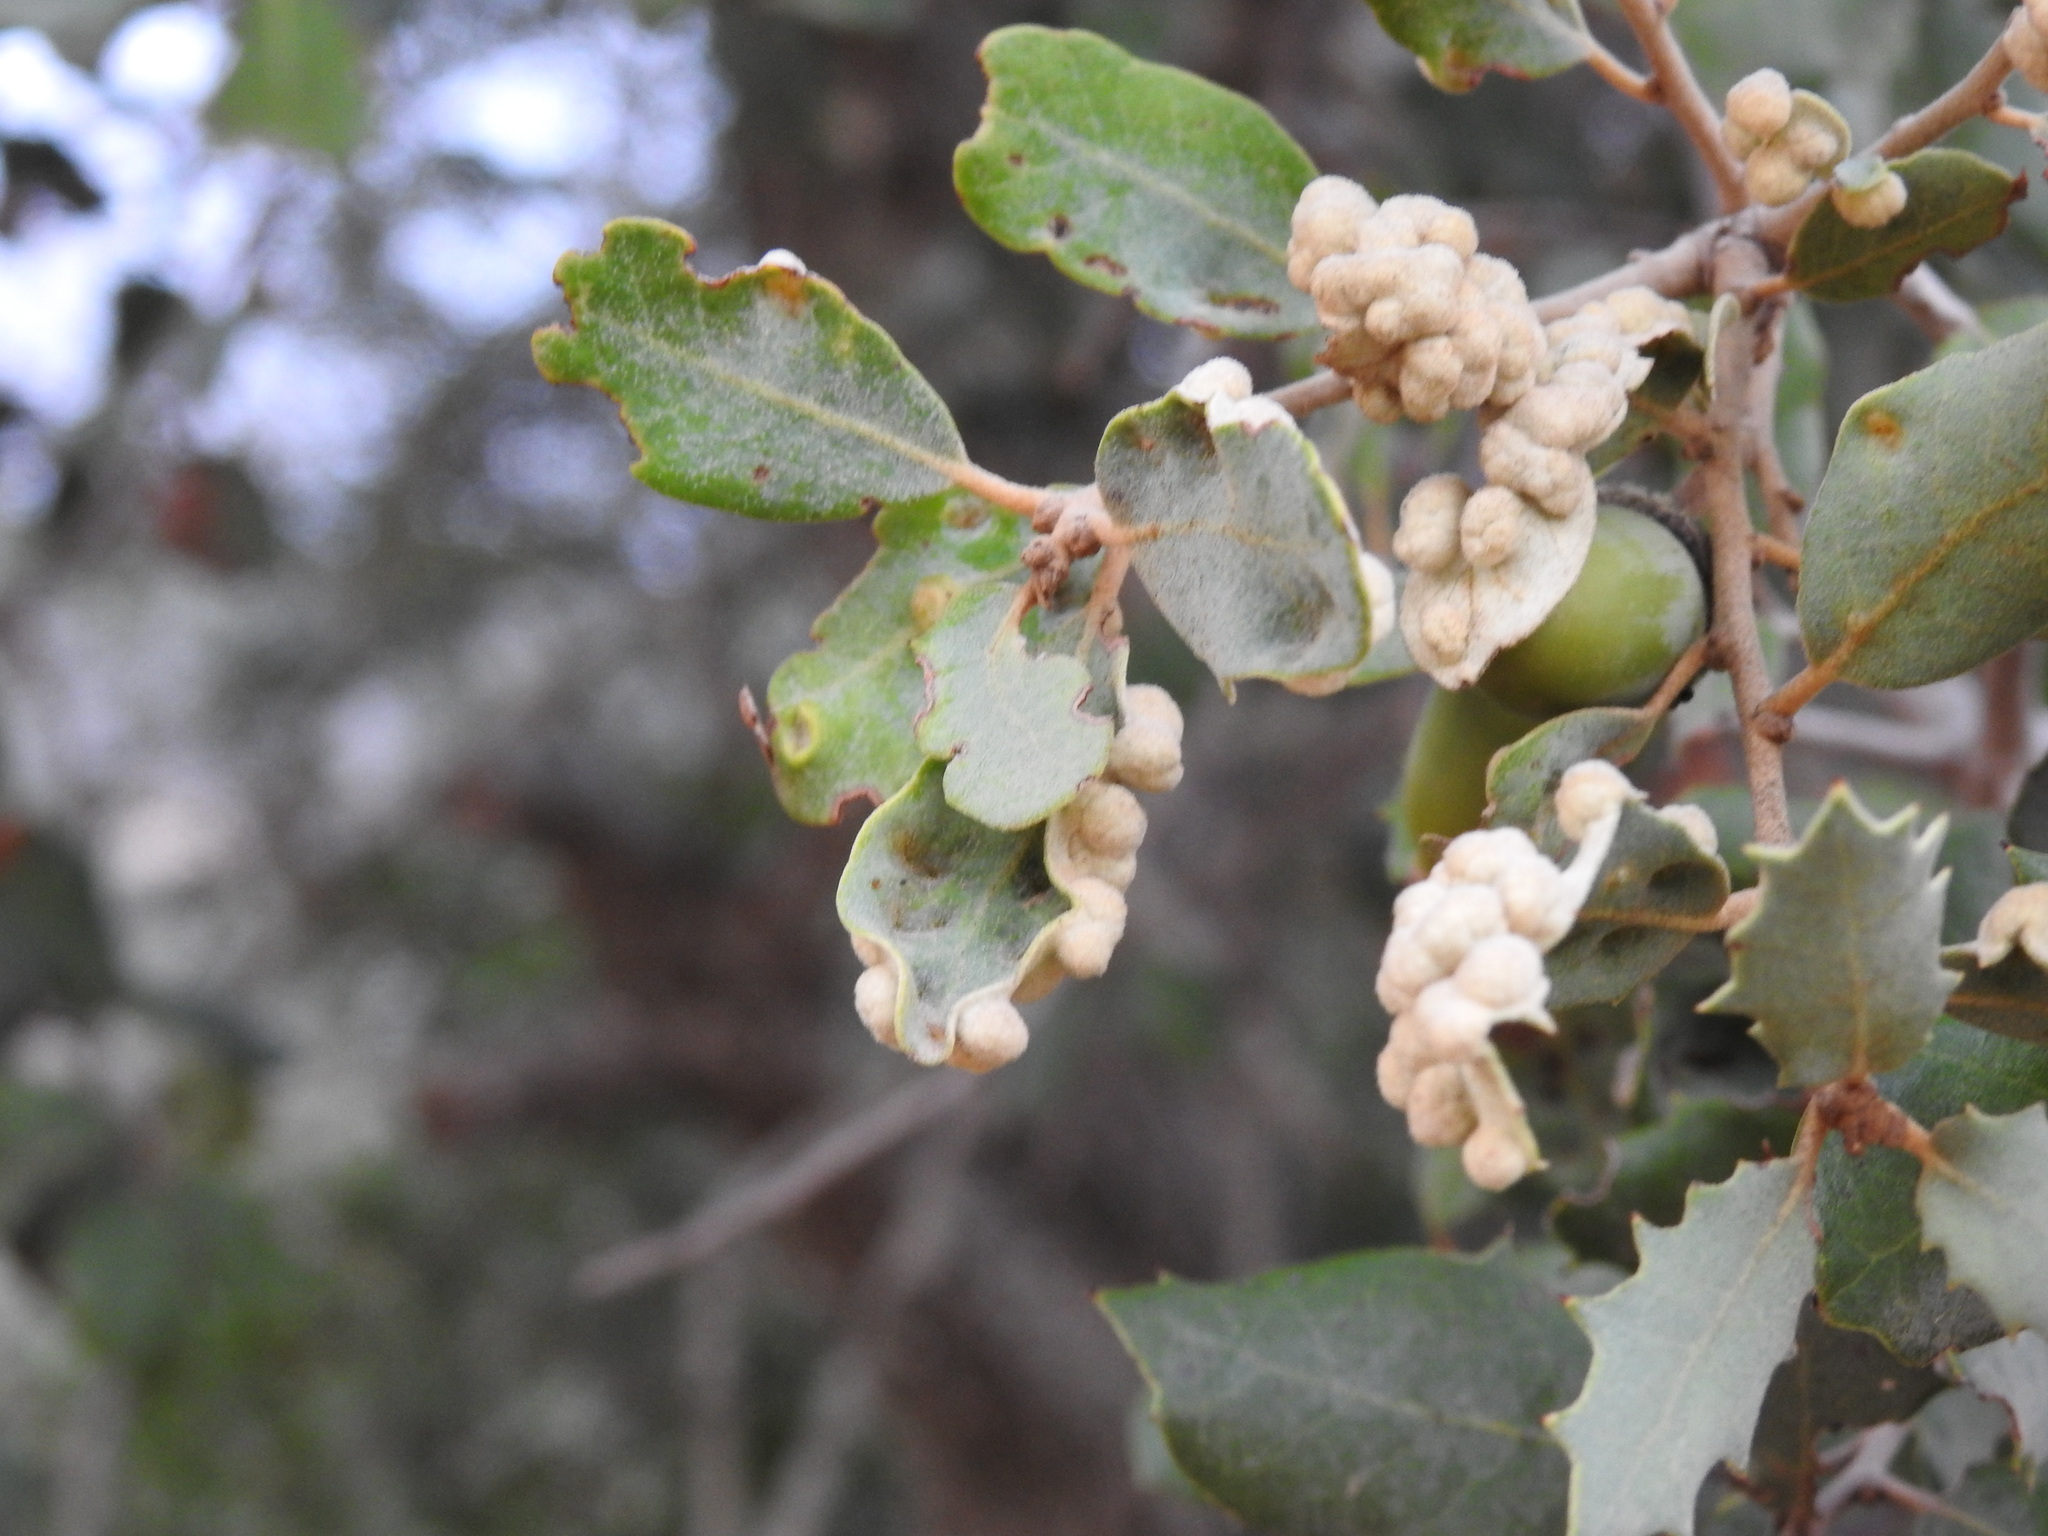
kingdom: Animalia
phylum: Arthropoda
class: Insecta
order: Diptera
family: Cecidomyiidae
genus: Dryomyia
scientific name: Dryomyia lichtensteinii
